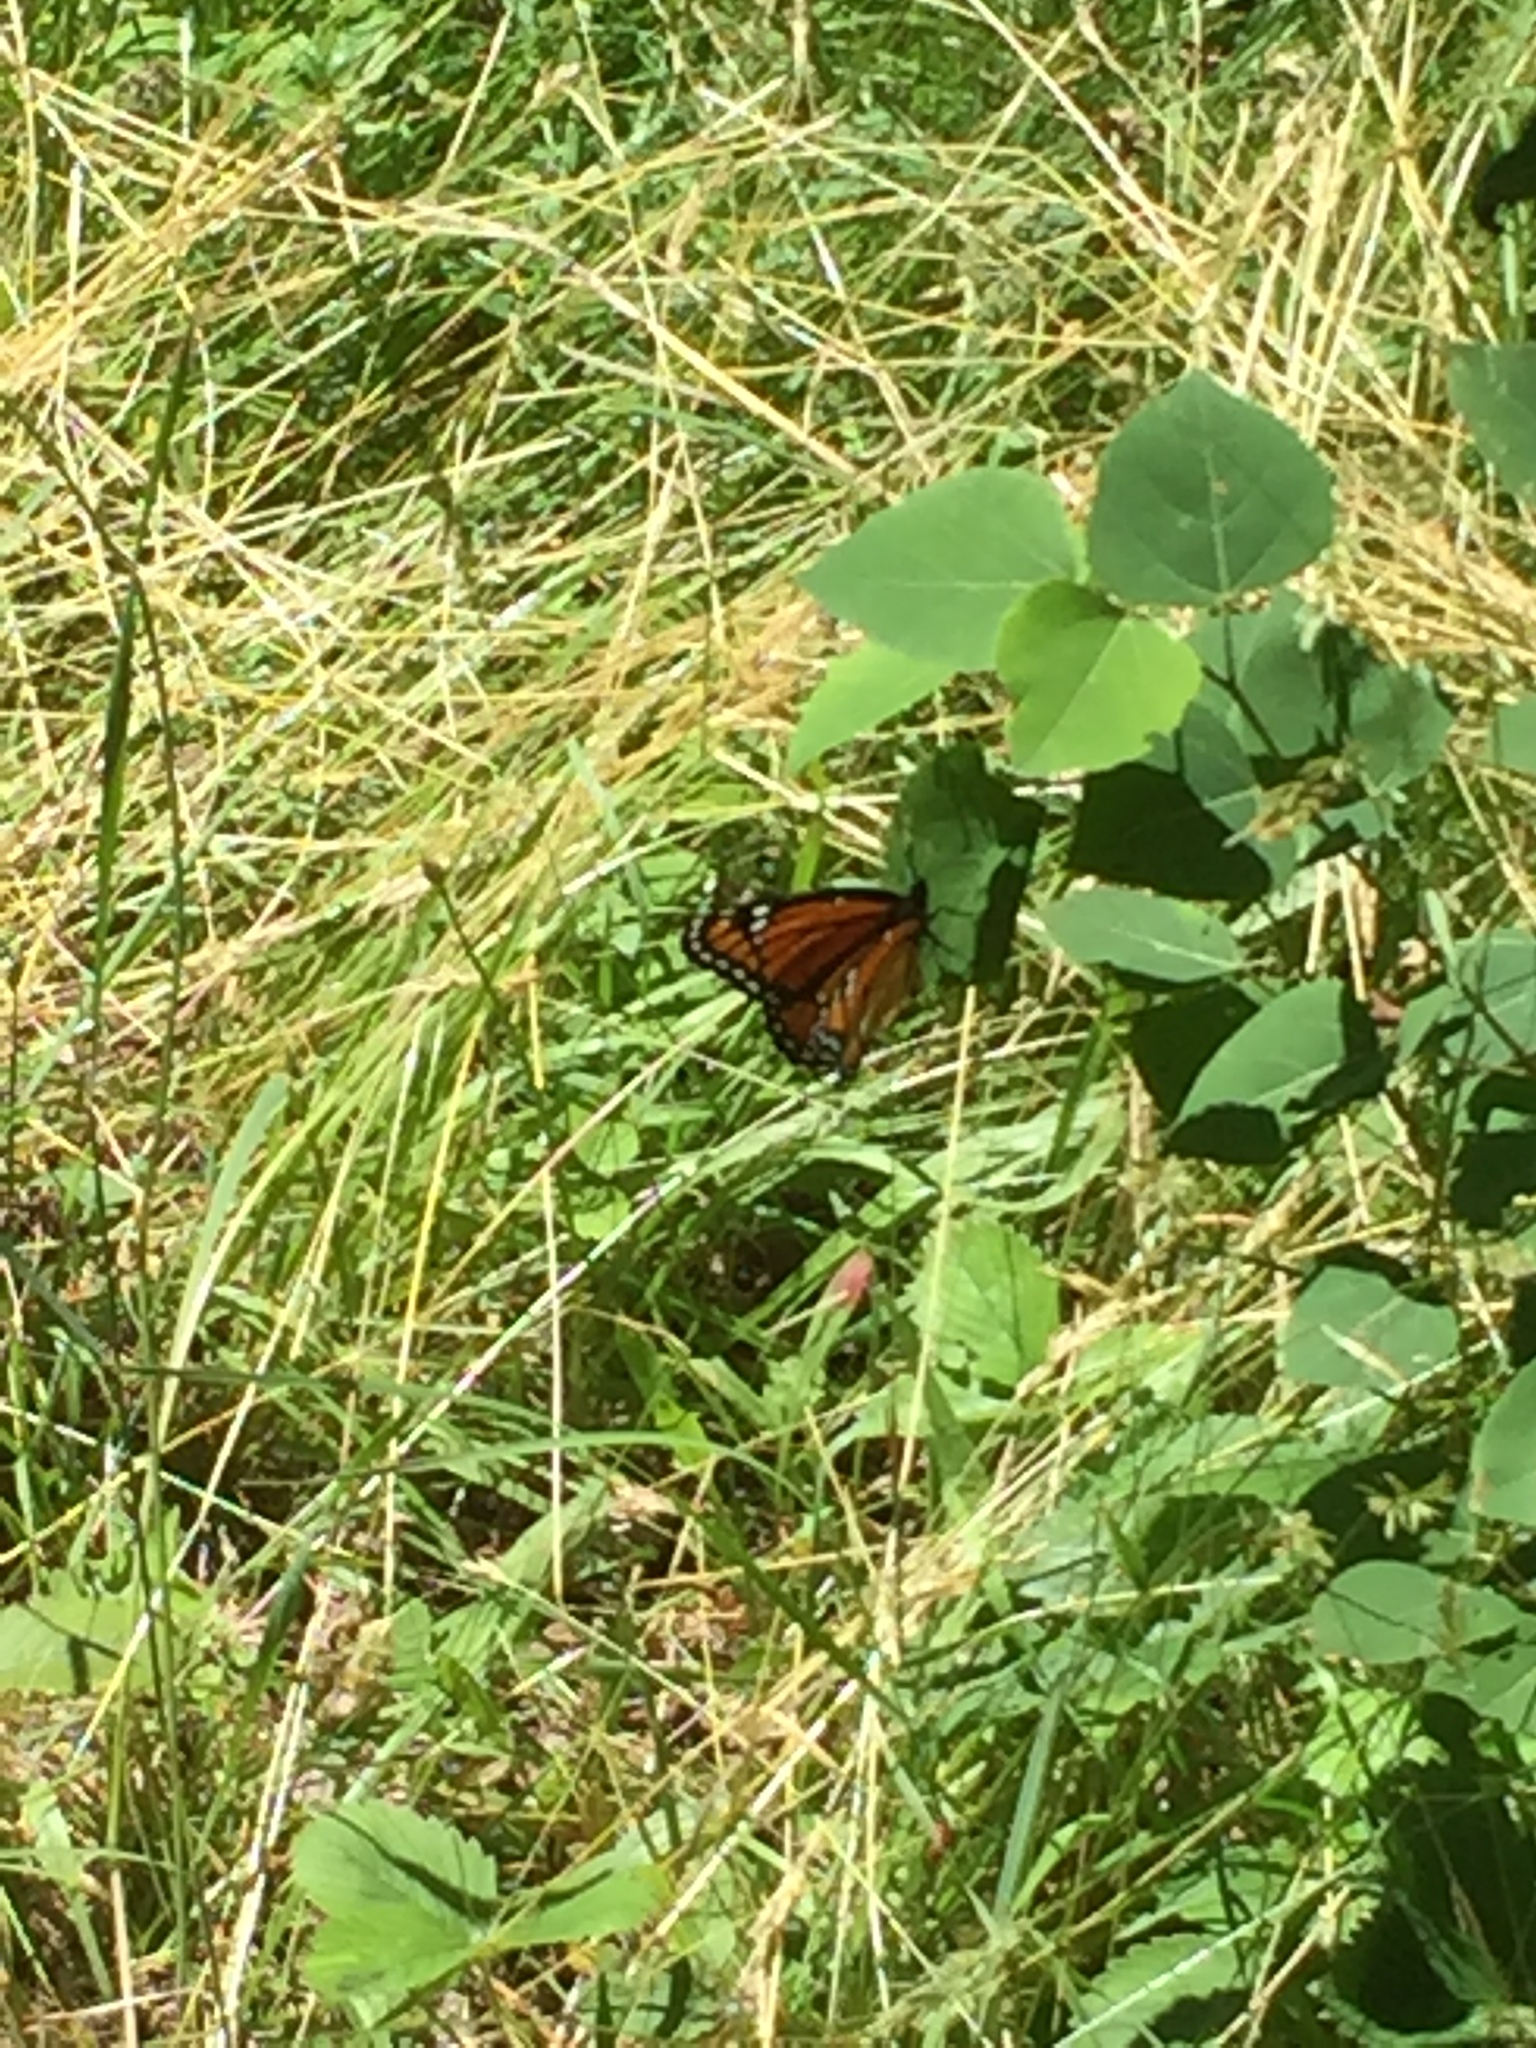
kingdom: Animalia
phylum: Arthropoda
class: Insecta
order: Lepidoptera
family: Nymphalidae
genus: Limenitis
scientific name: Limenitis archippus
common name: Viceroy
